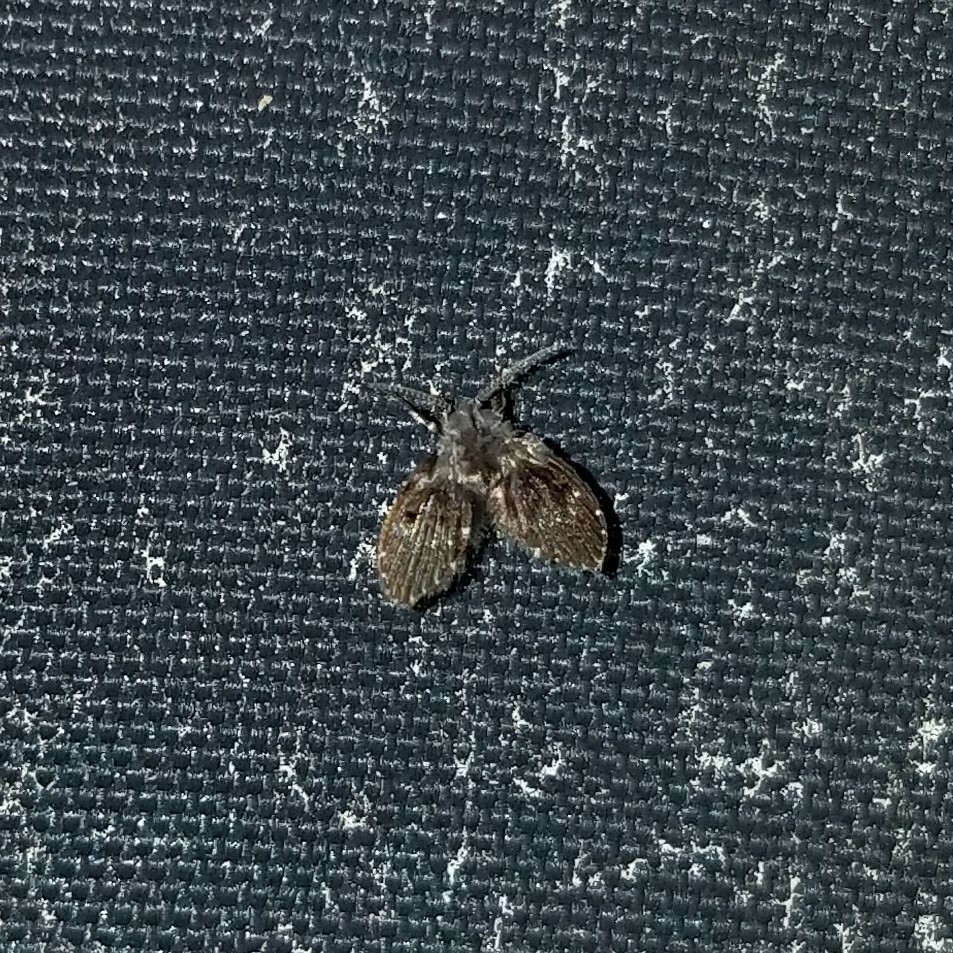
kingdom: Animalia
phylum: Arthropoda
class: Insecta
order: Diptera
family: Psychodidae
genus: Clogmia
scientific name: Clogmia albipunctatus
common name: White-spotted moth fly
